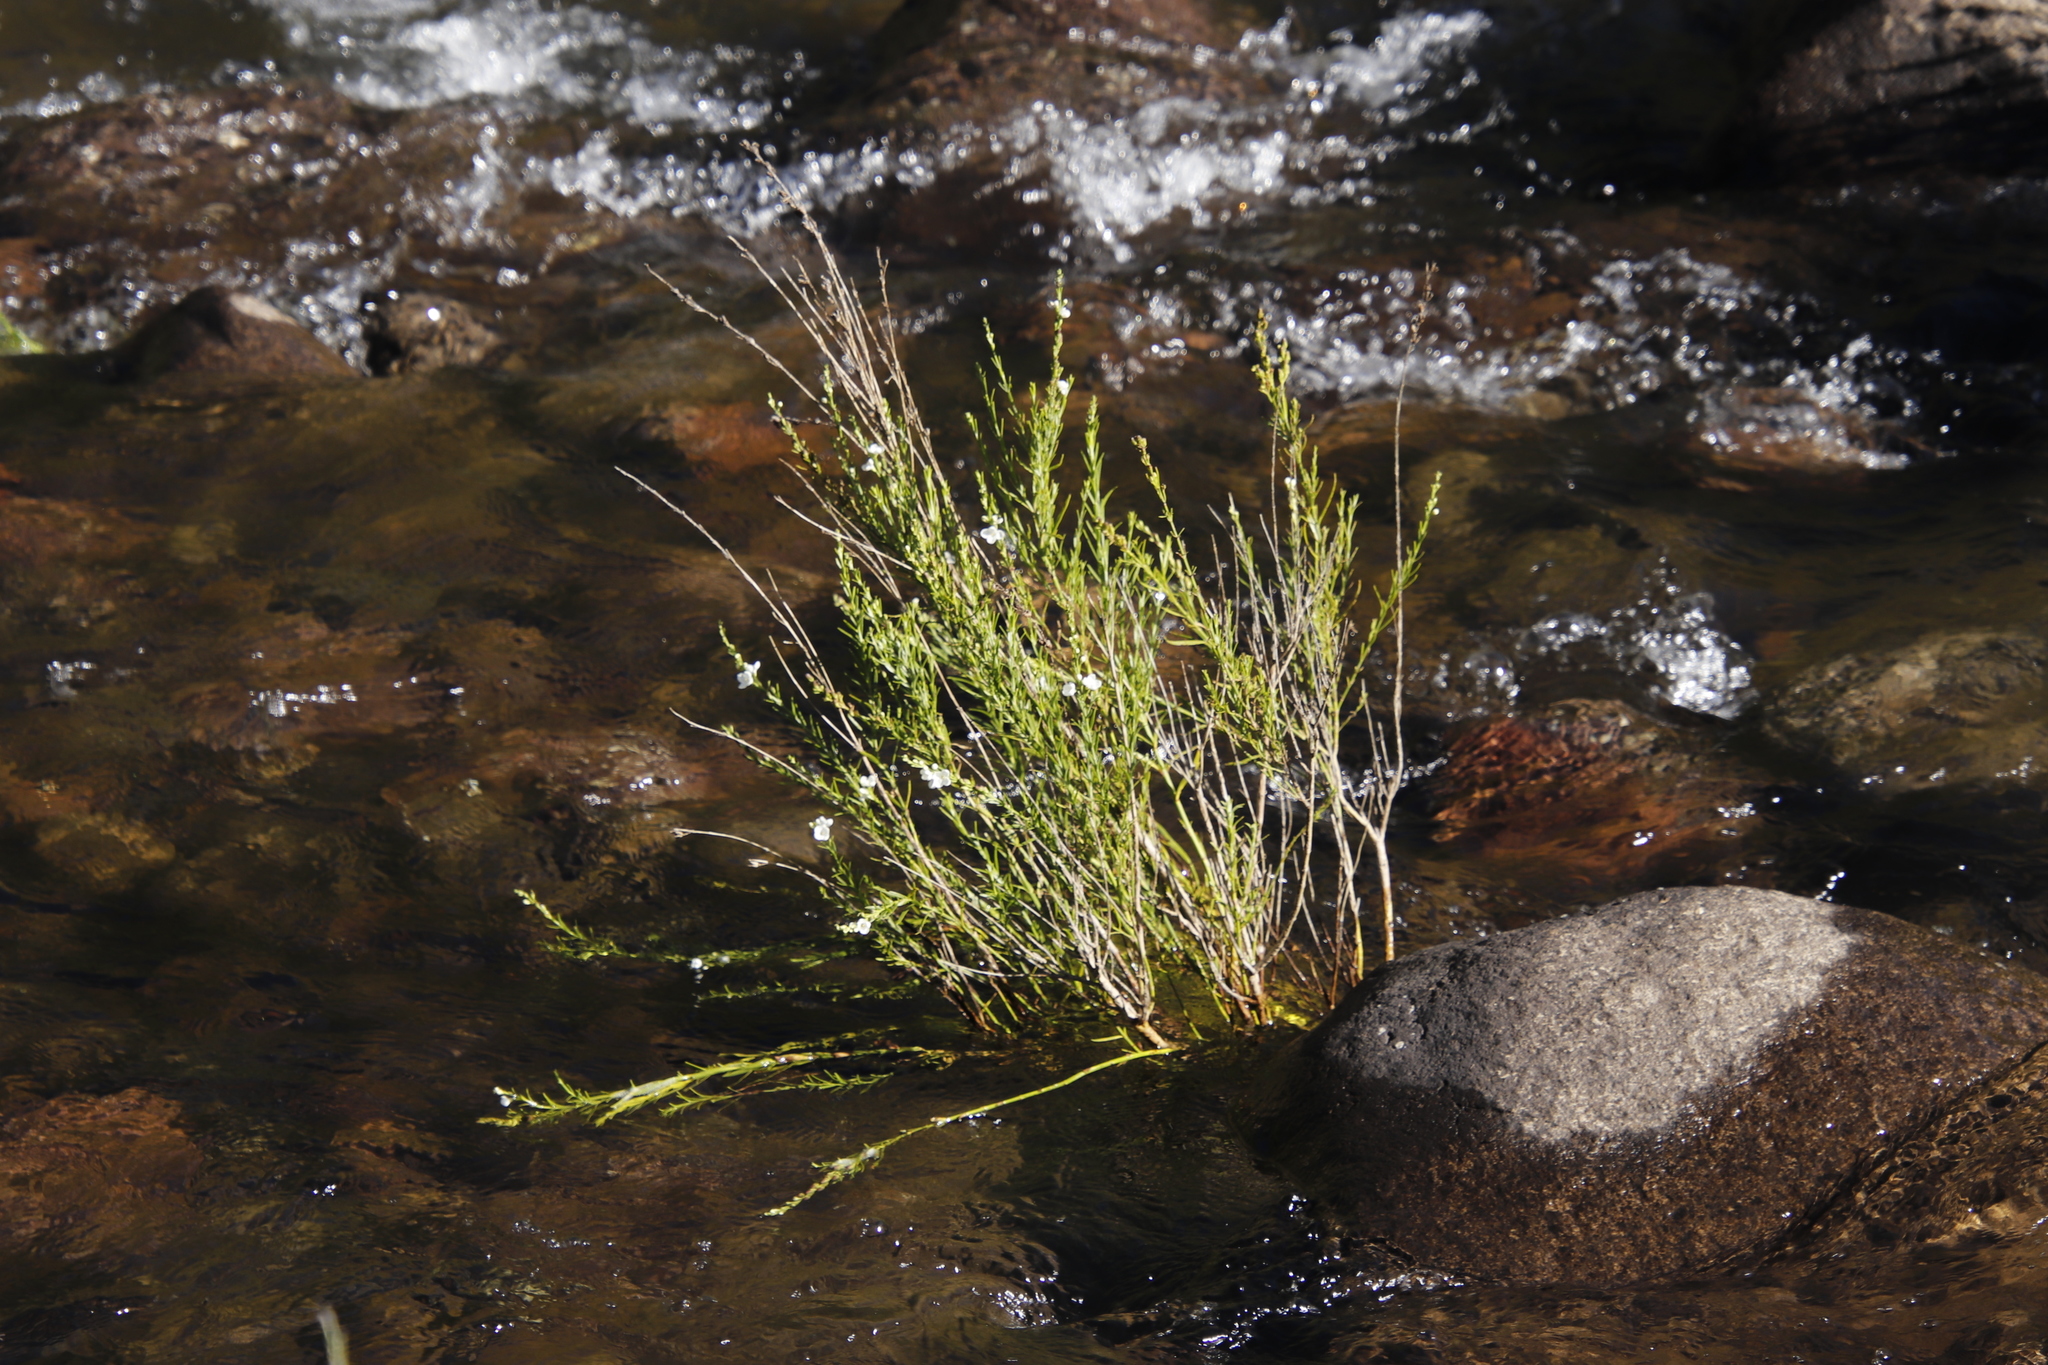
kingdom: Plantae
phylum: Tracheophyta
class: Magnoliopsida
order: Lamiales
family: Scrophulariaceae
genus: Buddleja
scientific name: Buddleja virgata
